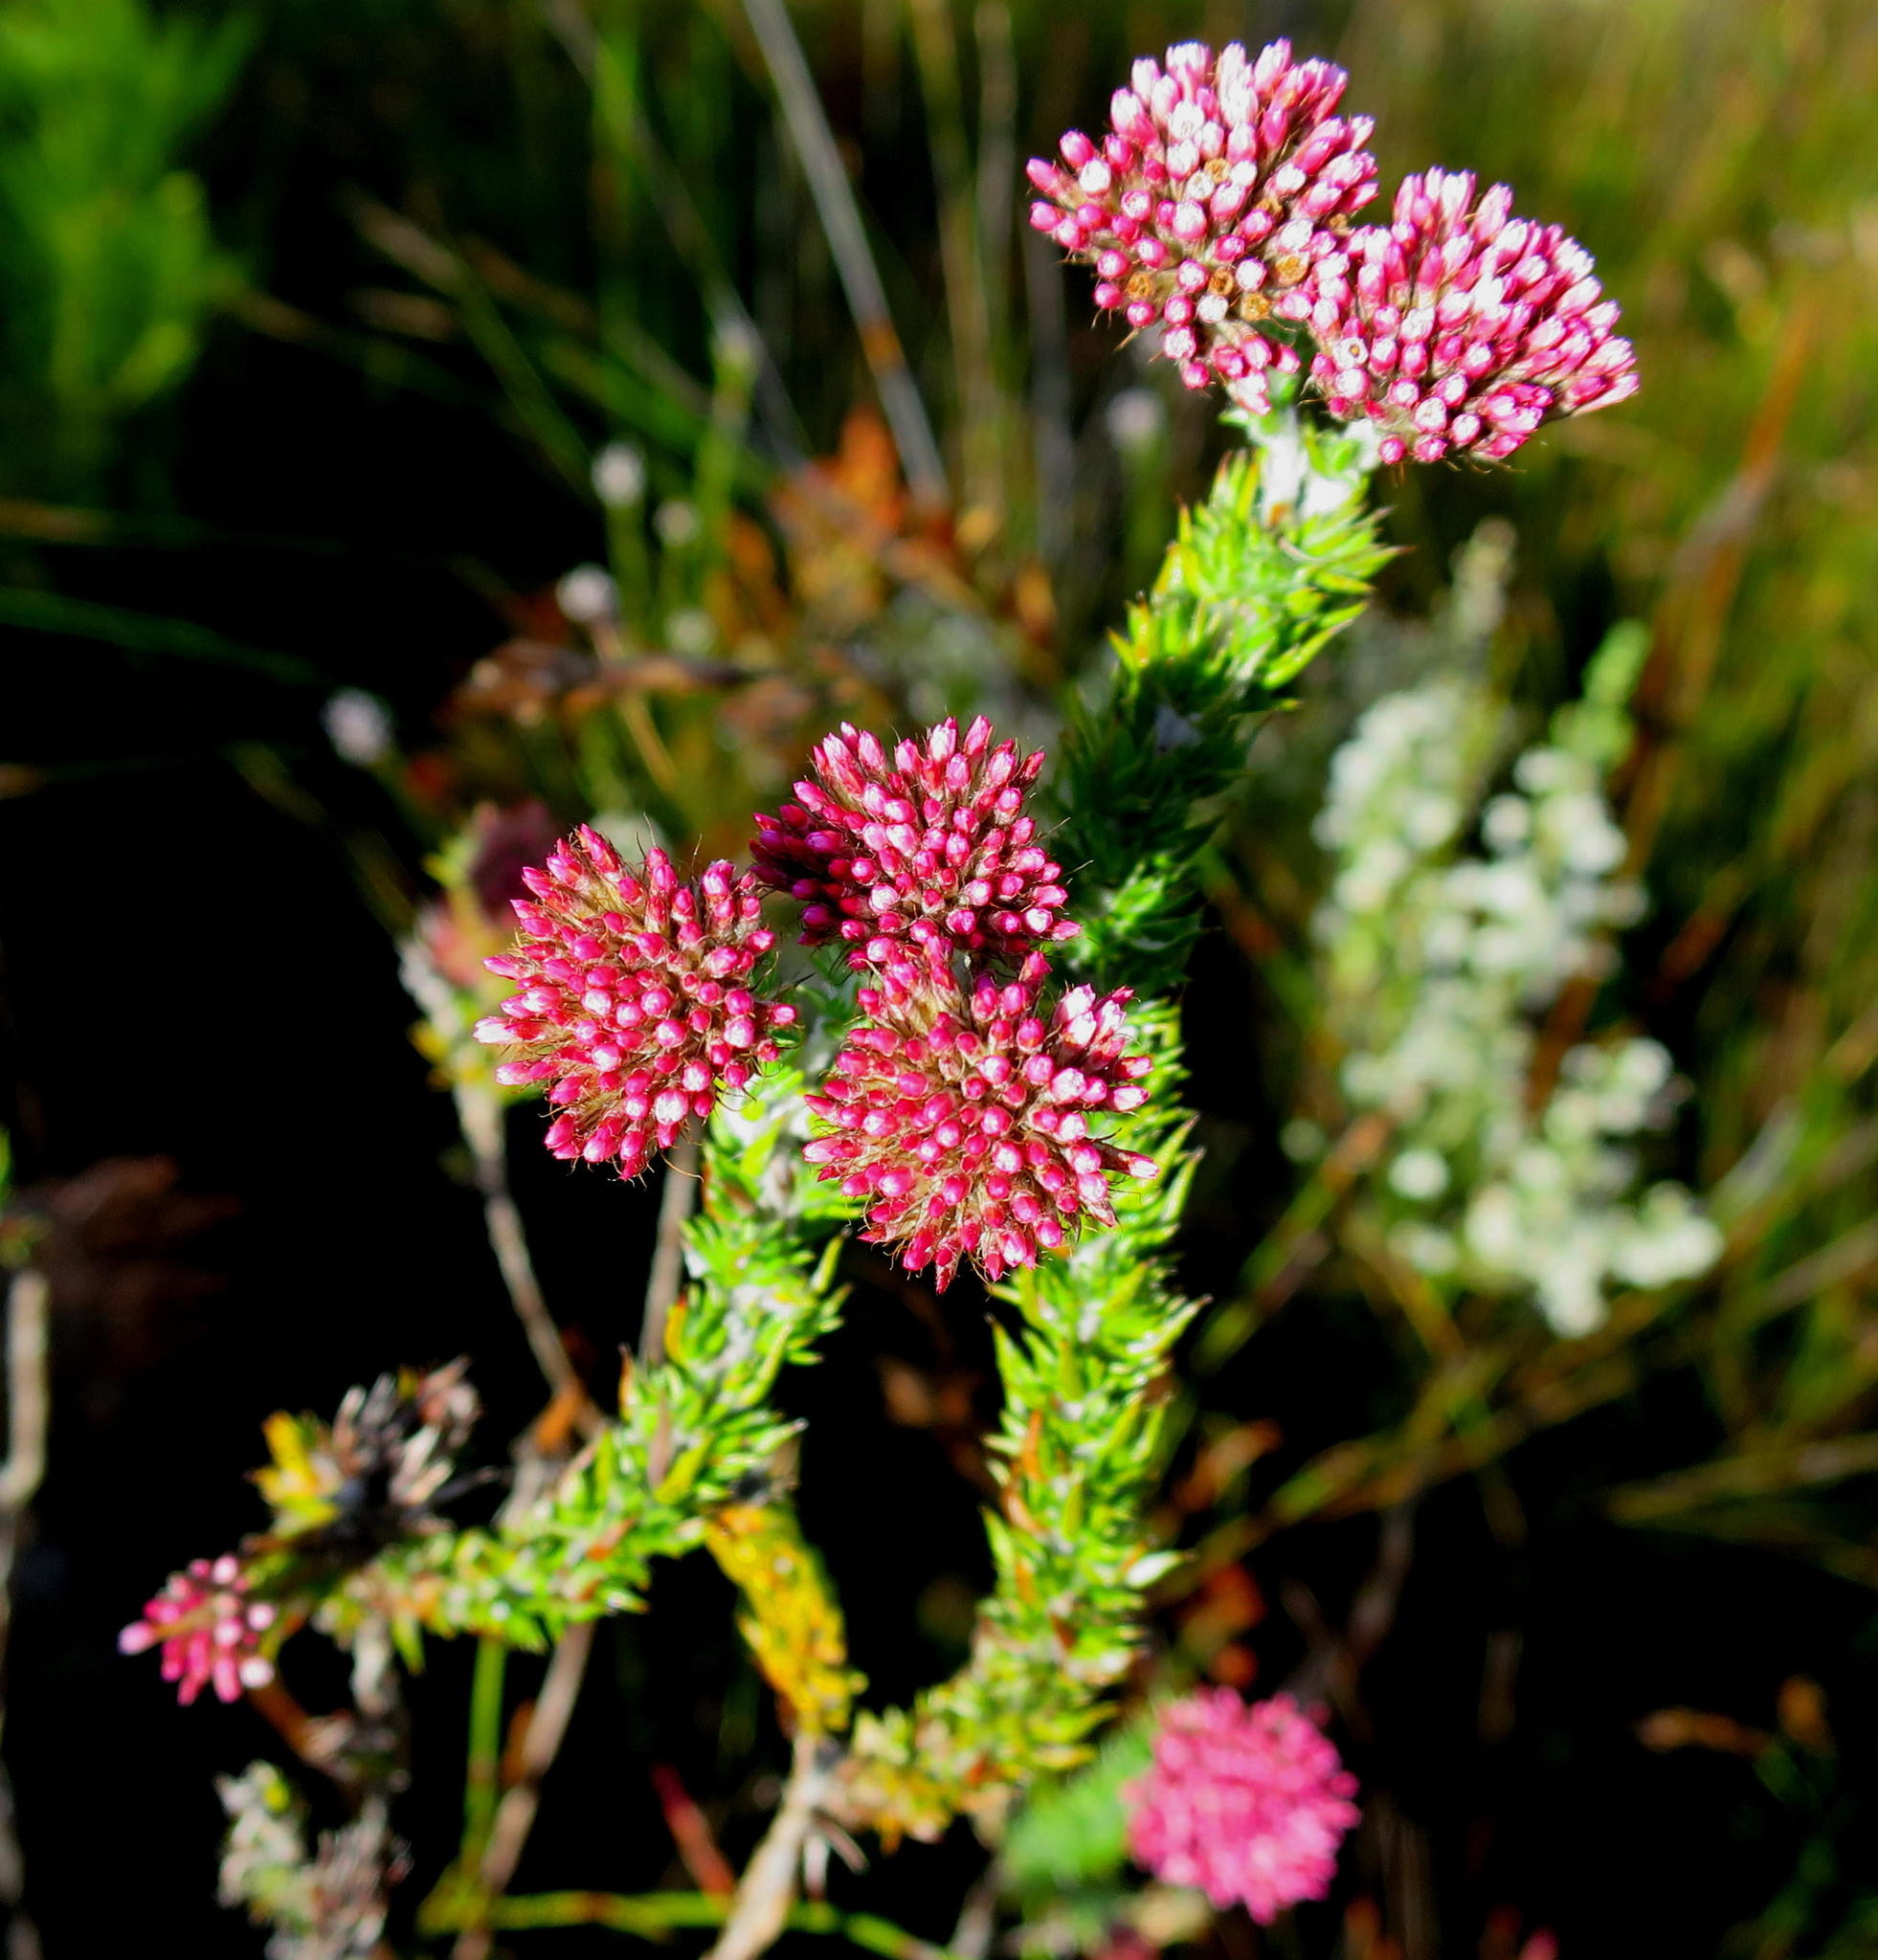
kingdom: Plantae
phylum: Tracheophyta
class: Magnoliopsida
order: Asterales
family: Asteraceae
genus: Metalasia
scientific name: Metalasia pungens
